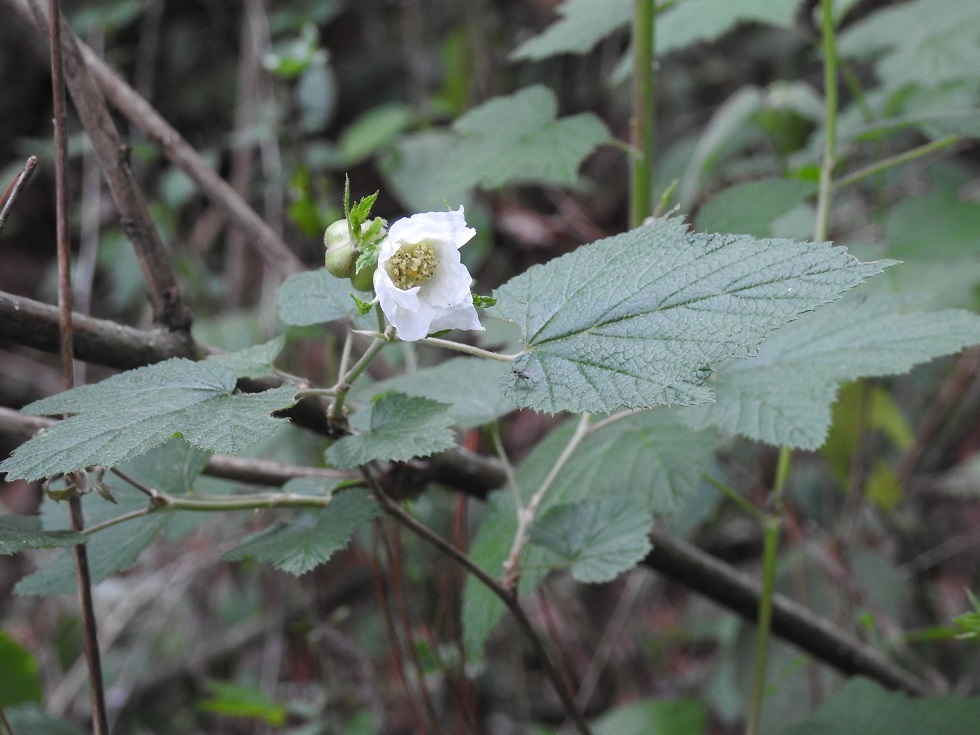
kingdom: Plantae
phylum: Tracheophyta
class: Magnoliopsida
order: Rosales
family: Rosaceae
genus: Rubus
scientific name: Rubus trilobus
